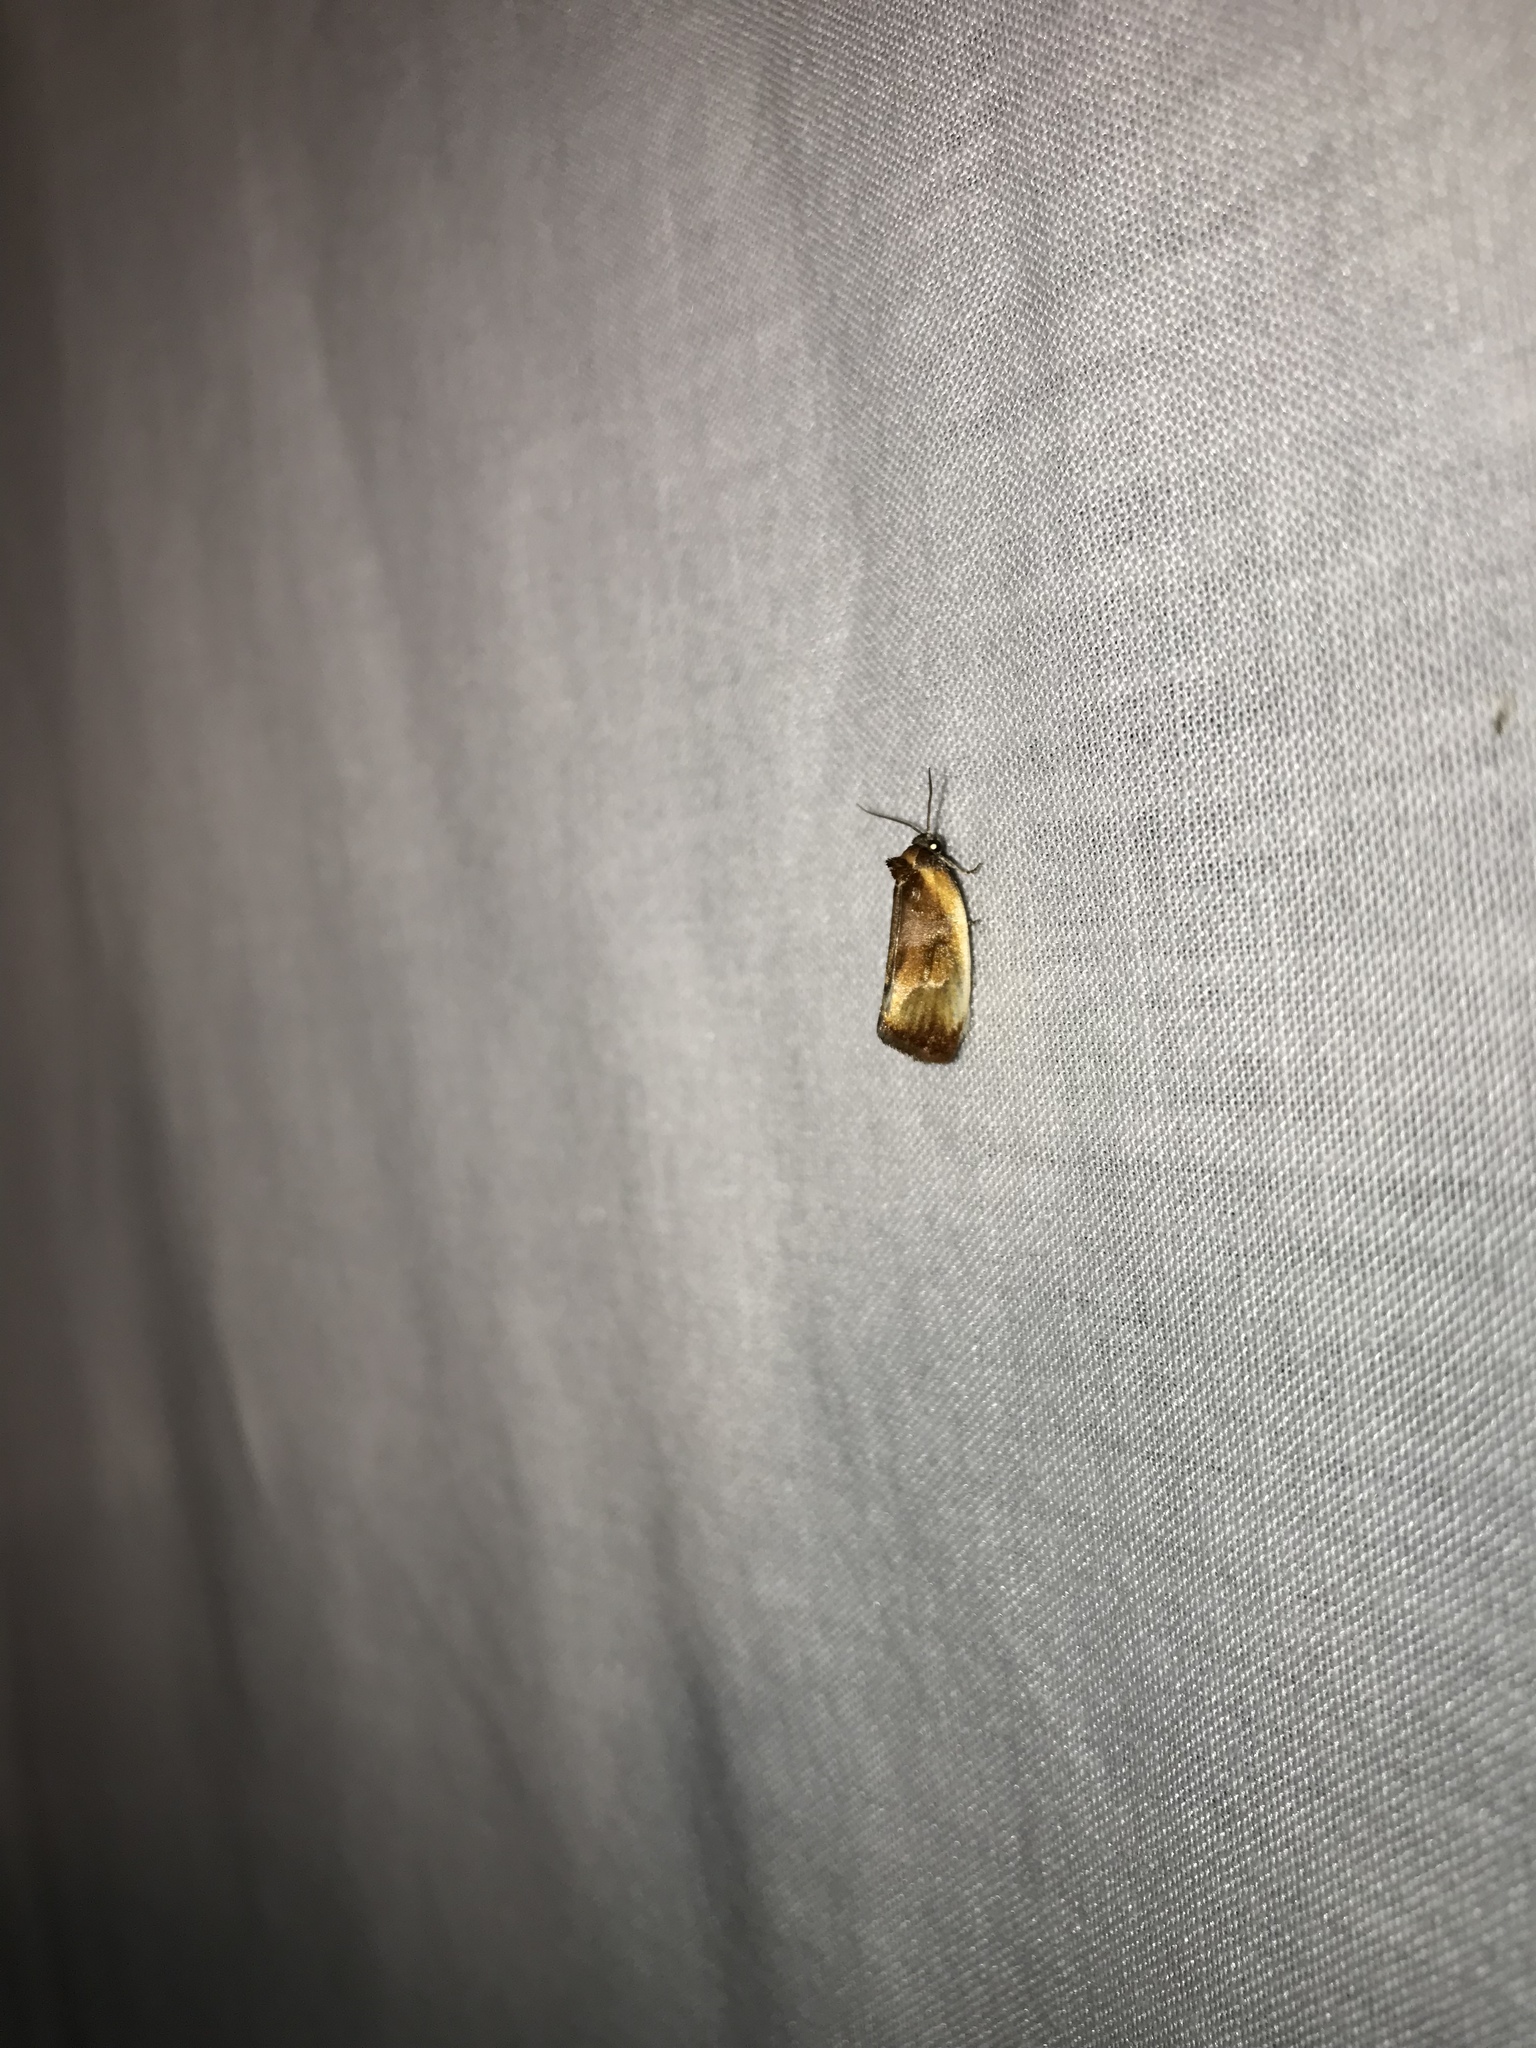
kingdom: Animalia
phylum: Arthropoda
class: Insecta
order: Lepidoptera
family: Tortricidae
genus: Eulia
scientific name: Eulia ministrana
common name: Brassy twist
